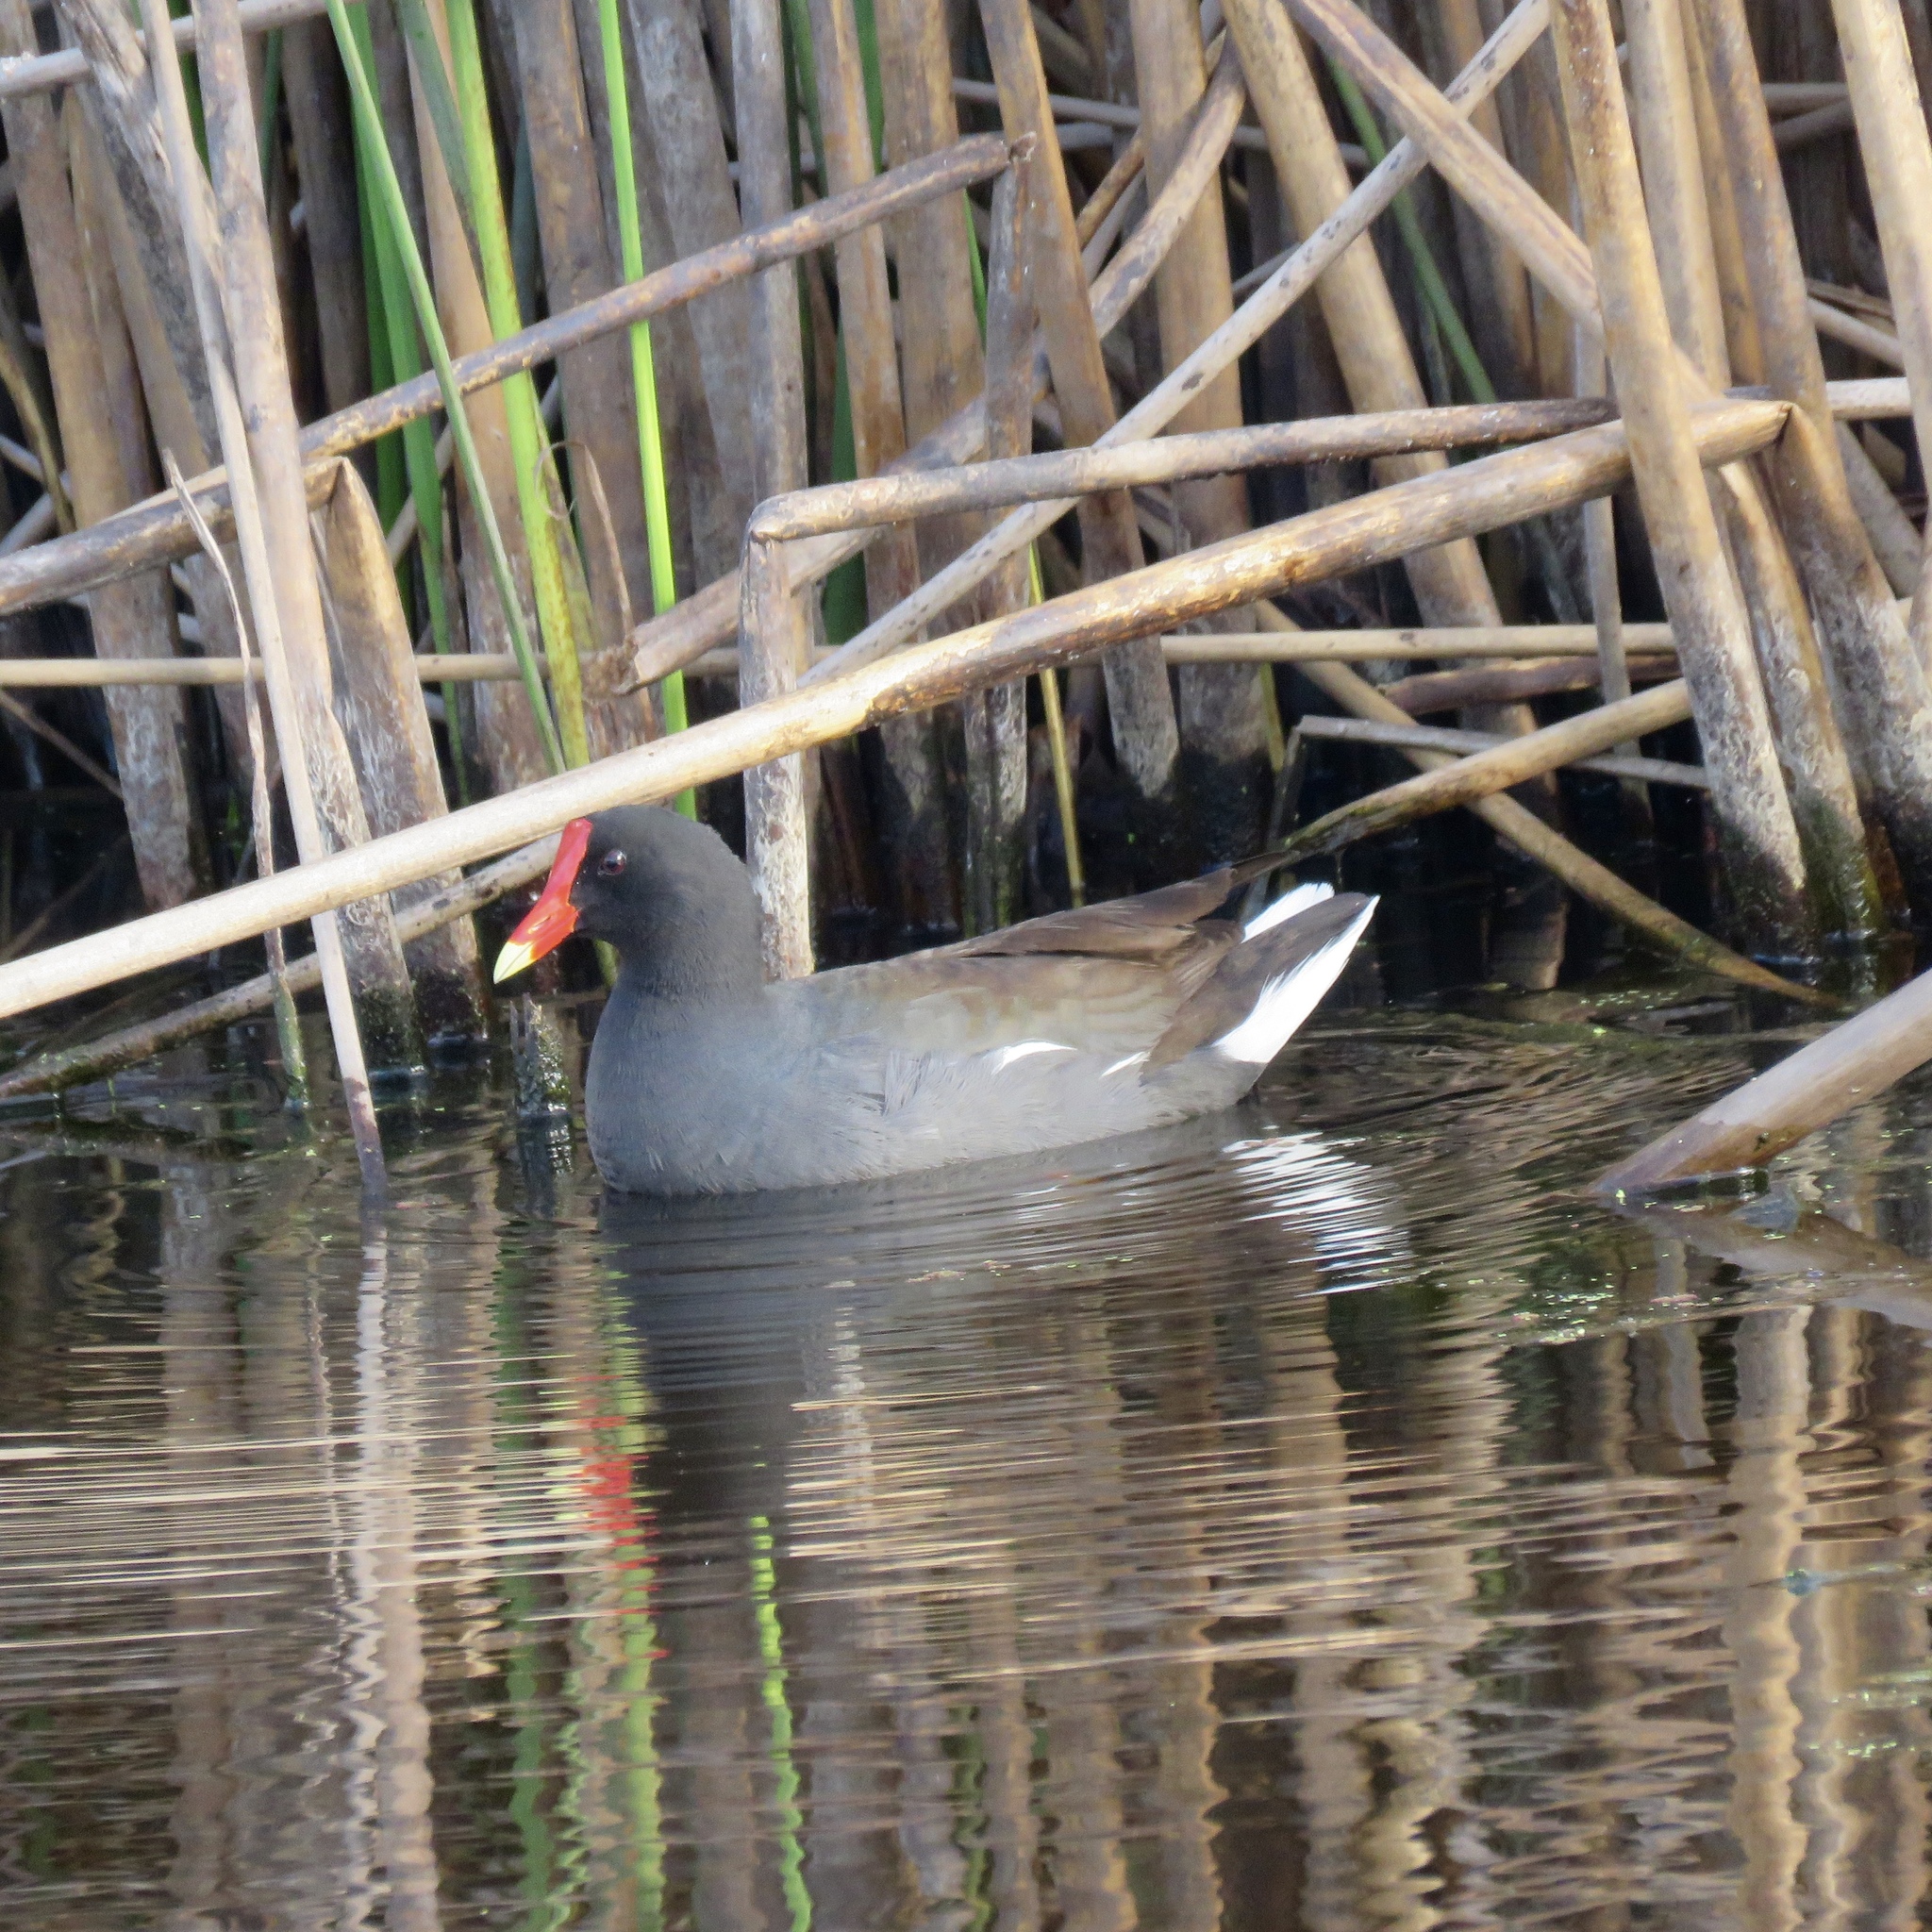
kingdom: Animalia
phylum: Chordata
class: Aves
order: Gruiformes
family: Rallidae
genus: Gallinula
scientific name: Gallinula chloropus
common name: Common moorhen
